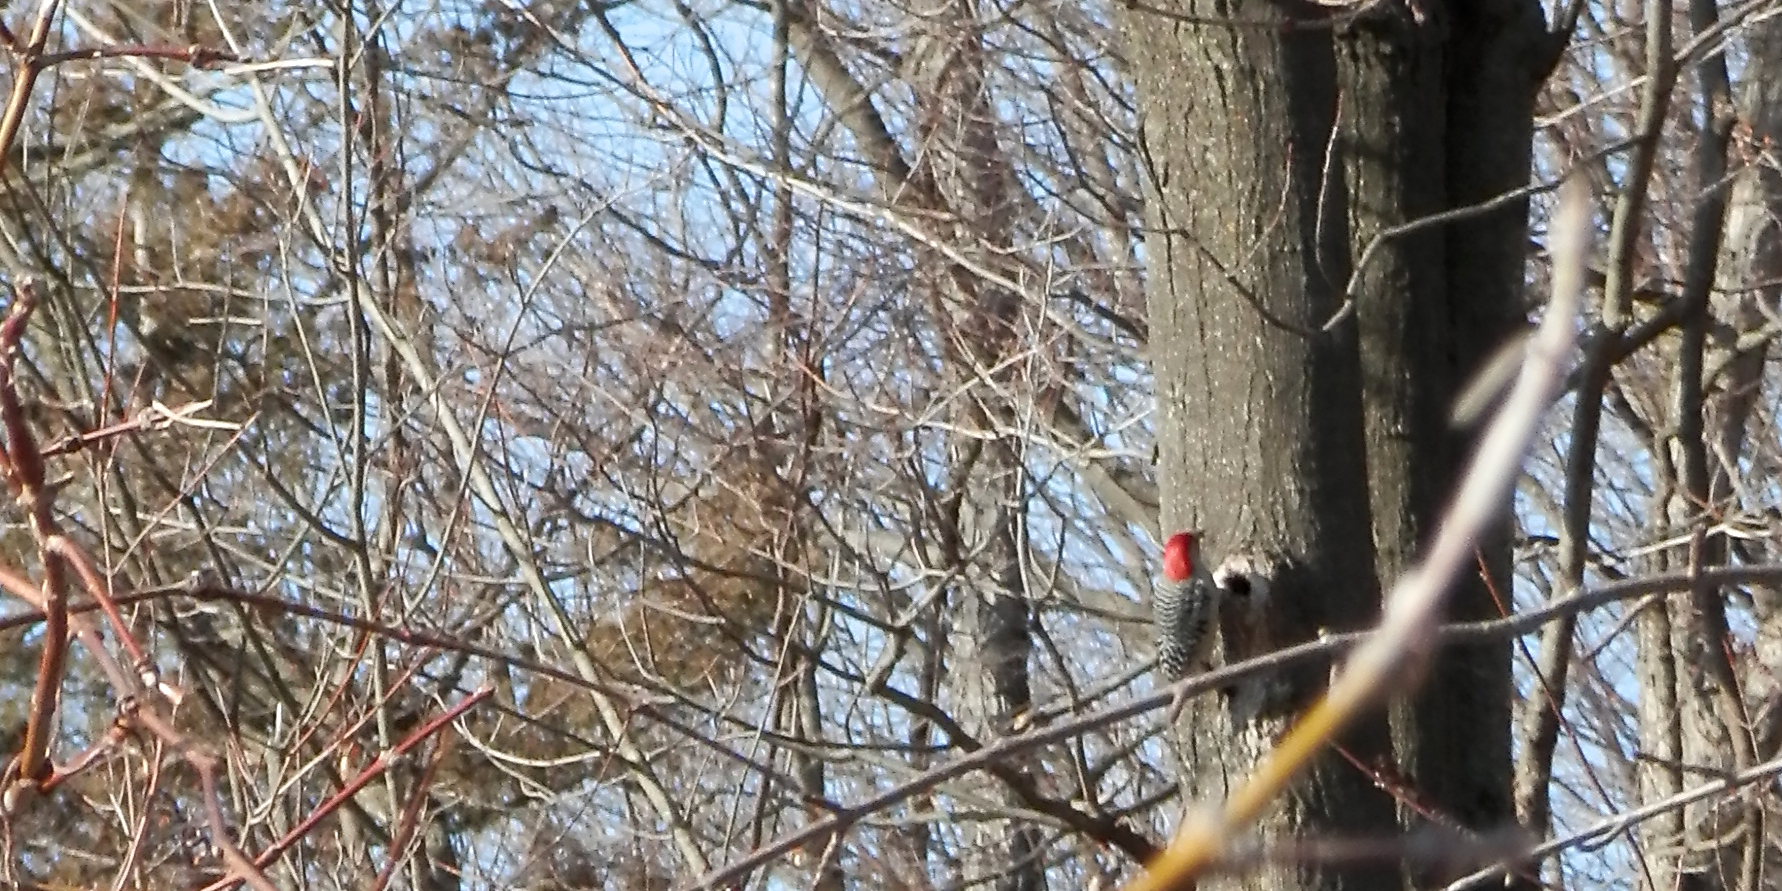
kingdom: Animalia
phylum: Chordata
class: Aves
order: Piciformes
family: Picidae
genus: Melanerpes
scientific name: Melanerpes carolinus
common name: Red-bellied woodpecker
